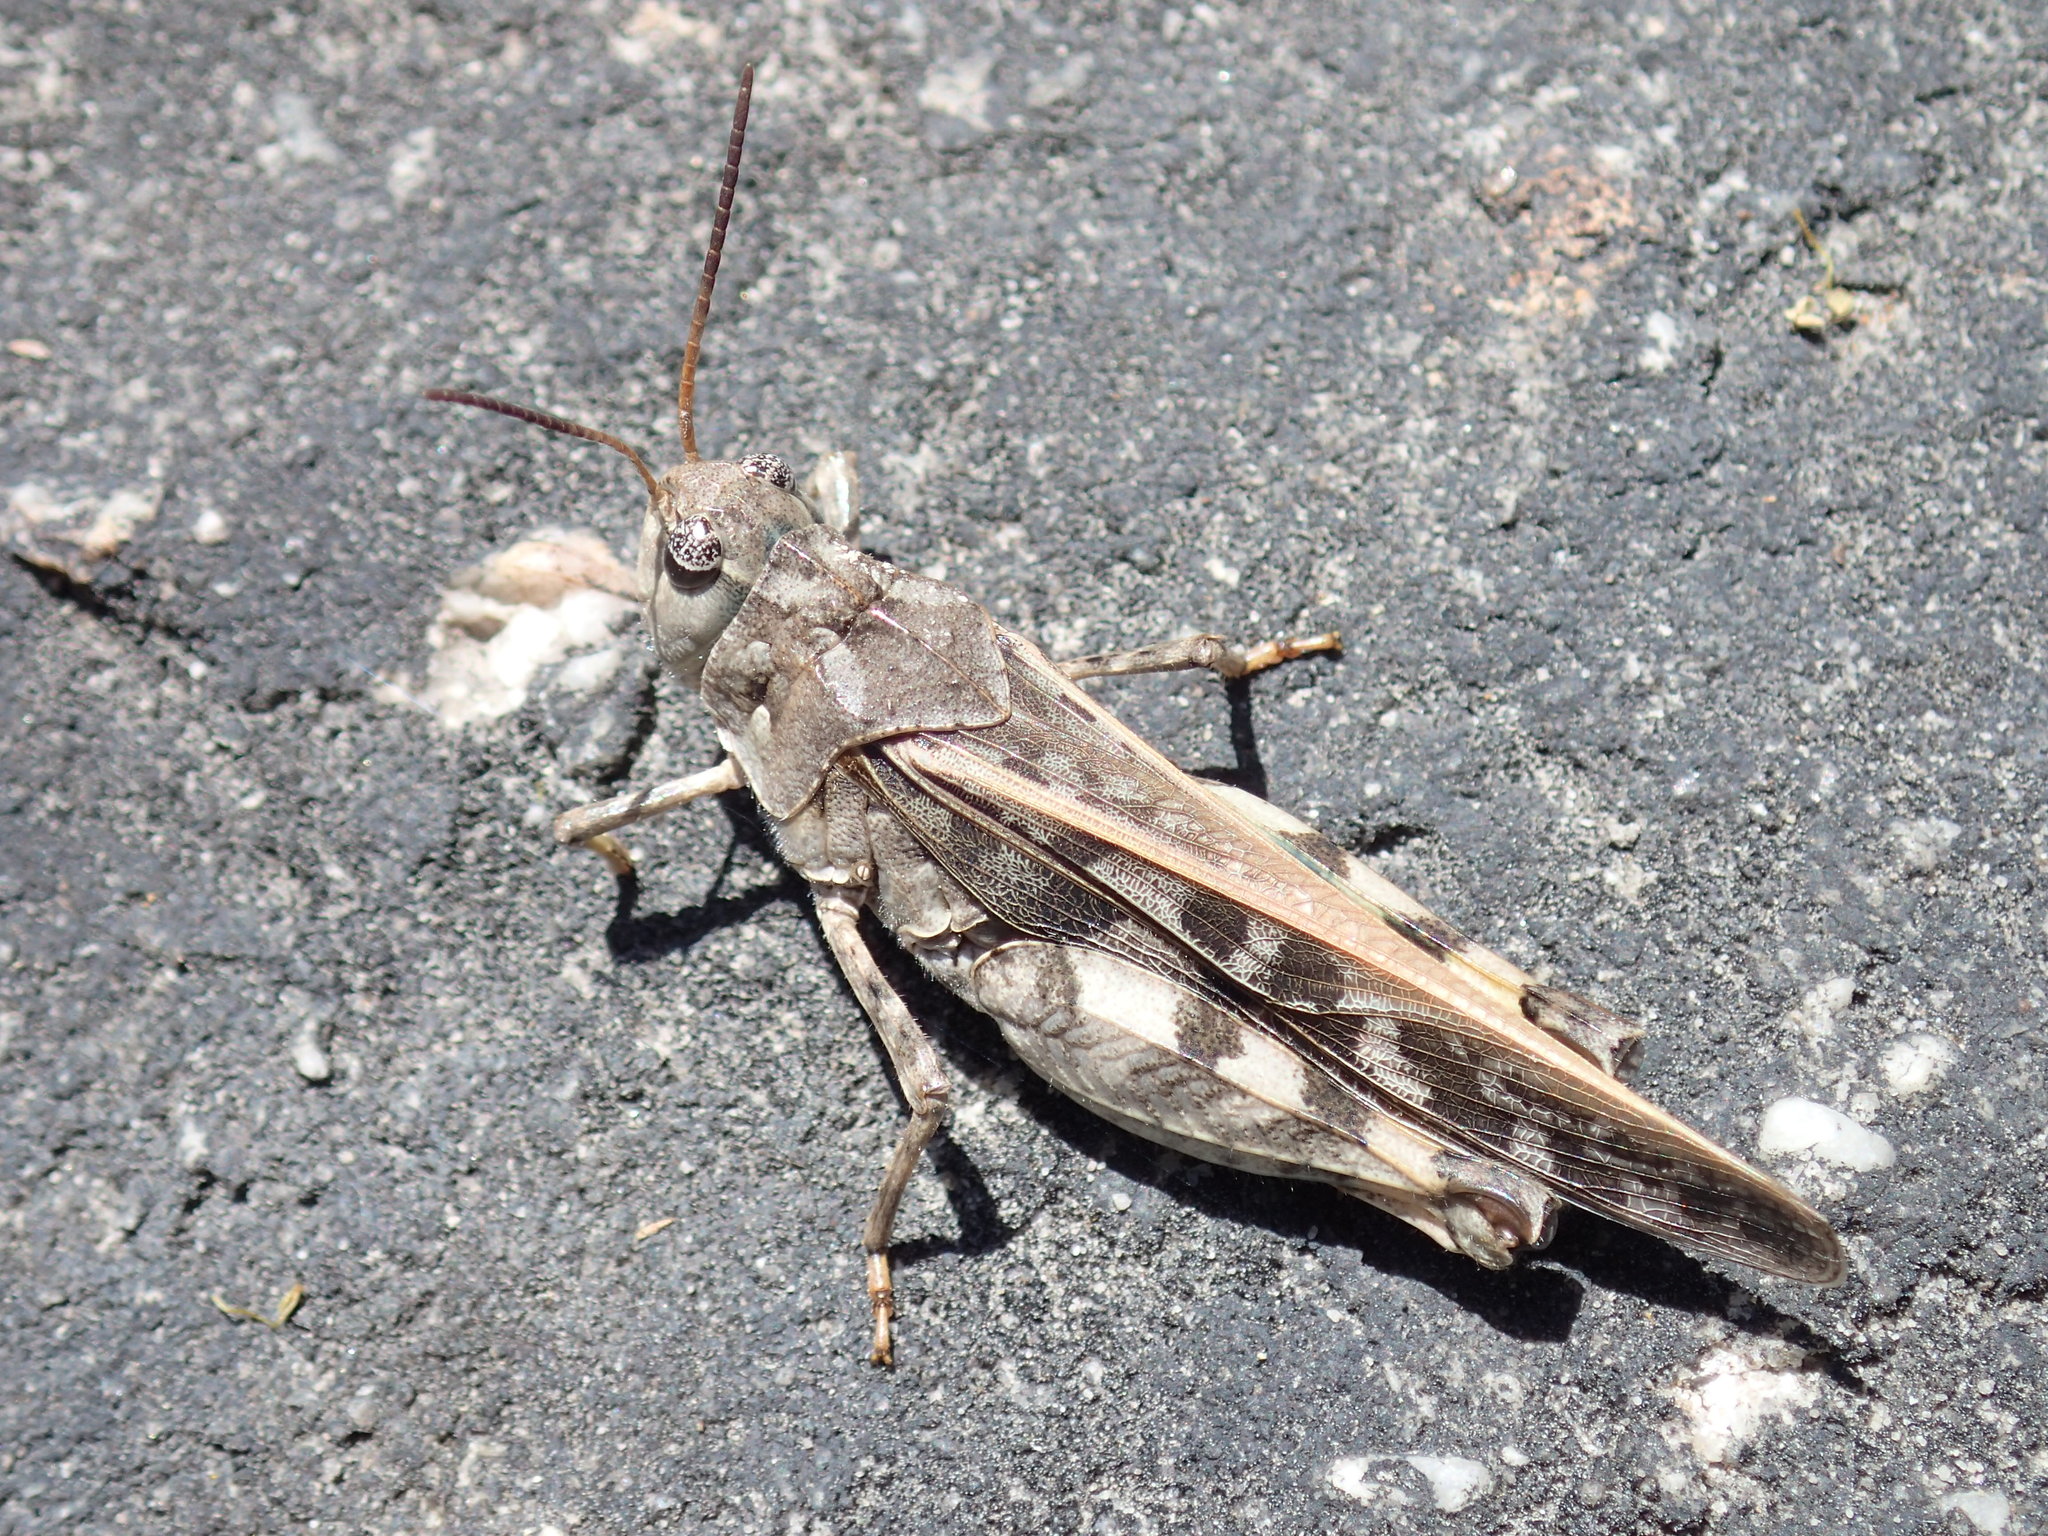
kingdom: Animalia
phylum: Arthropoda
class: Insecta
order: Orthoptera
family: Acrididae
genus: Pardalophora
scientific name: Pardalophora phoenicoptera
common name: Orange-winged grasshopper
